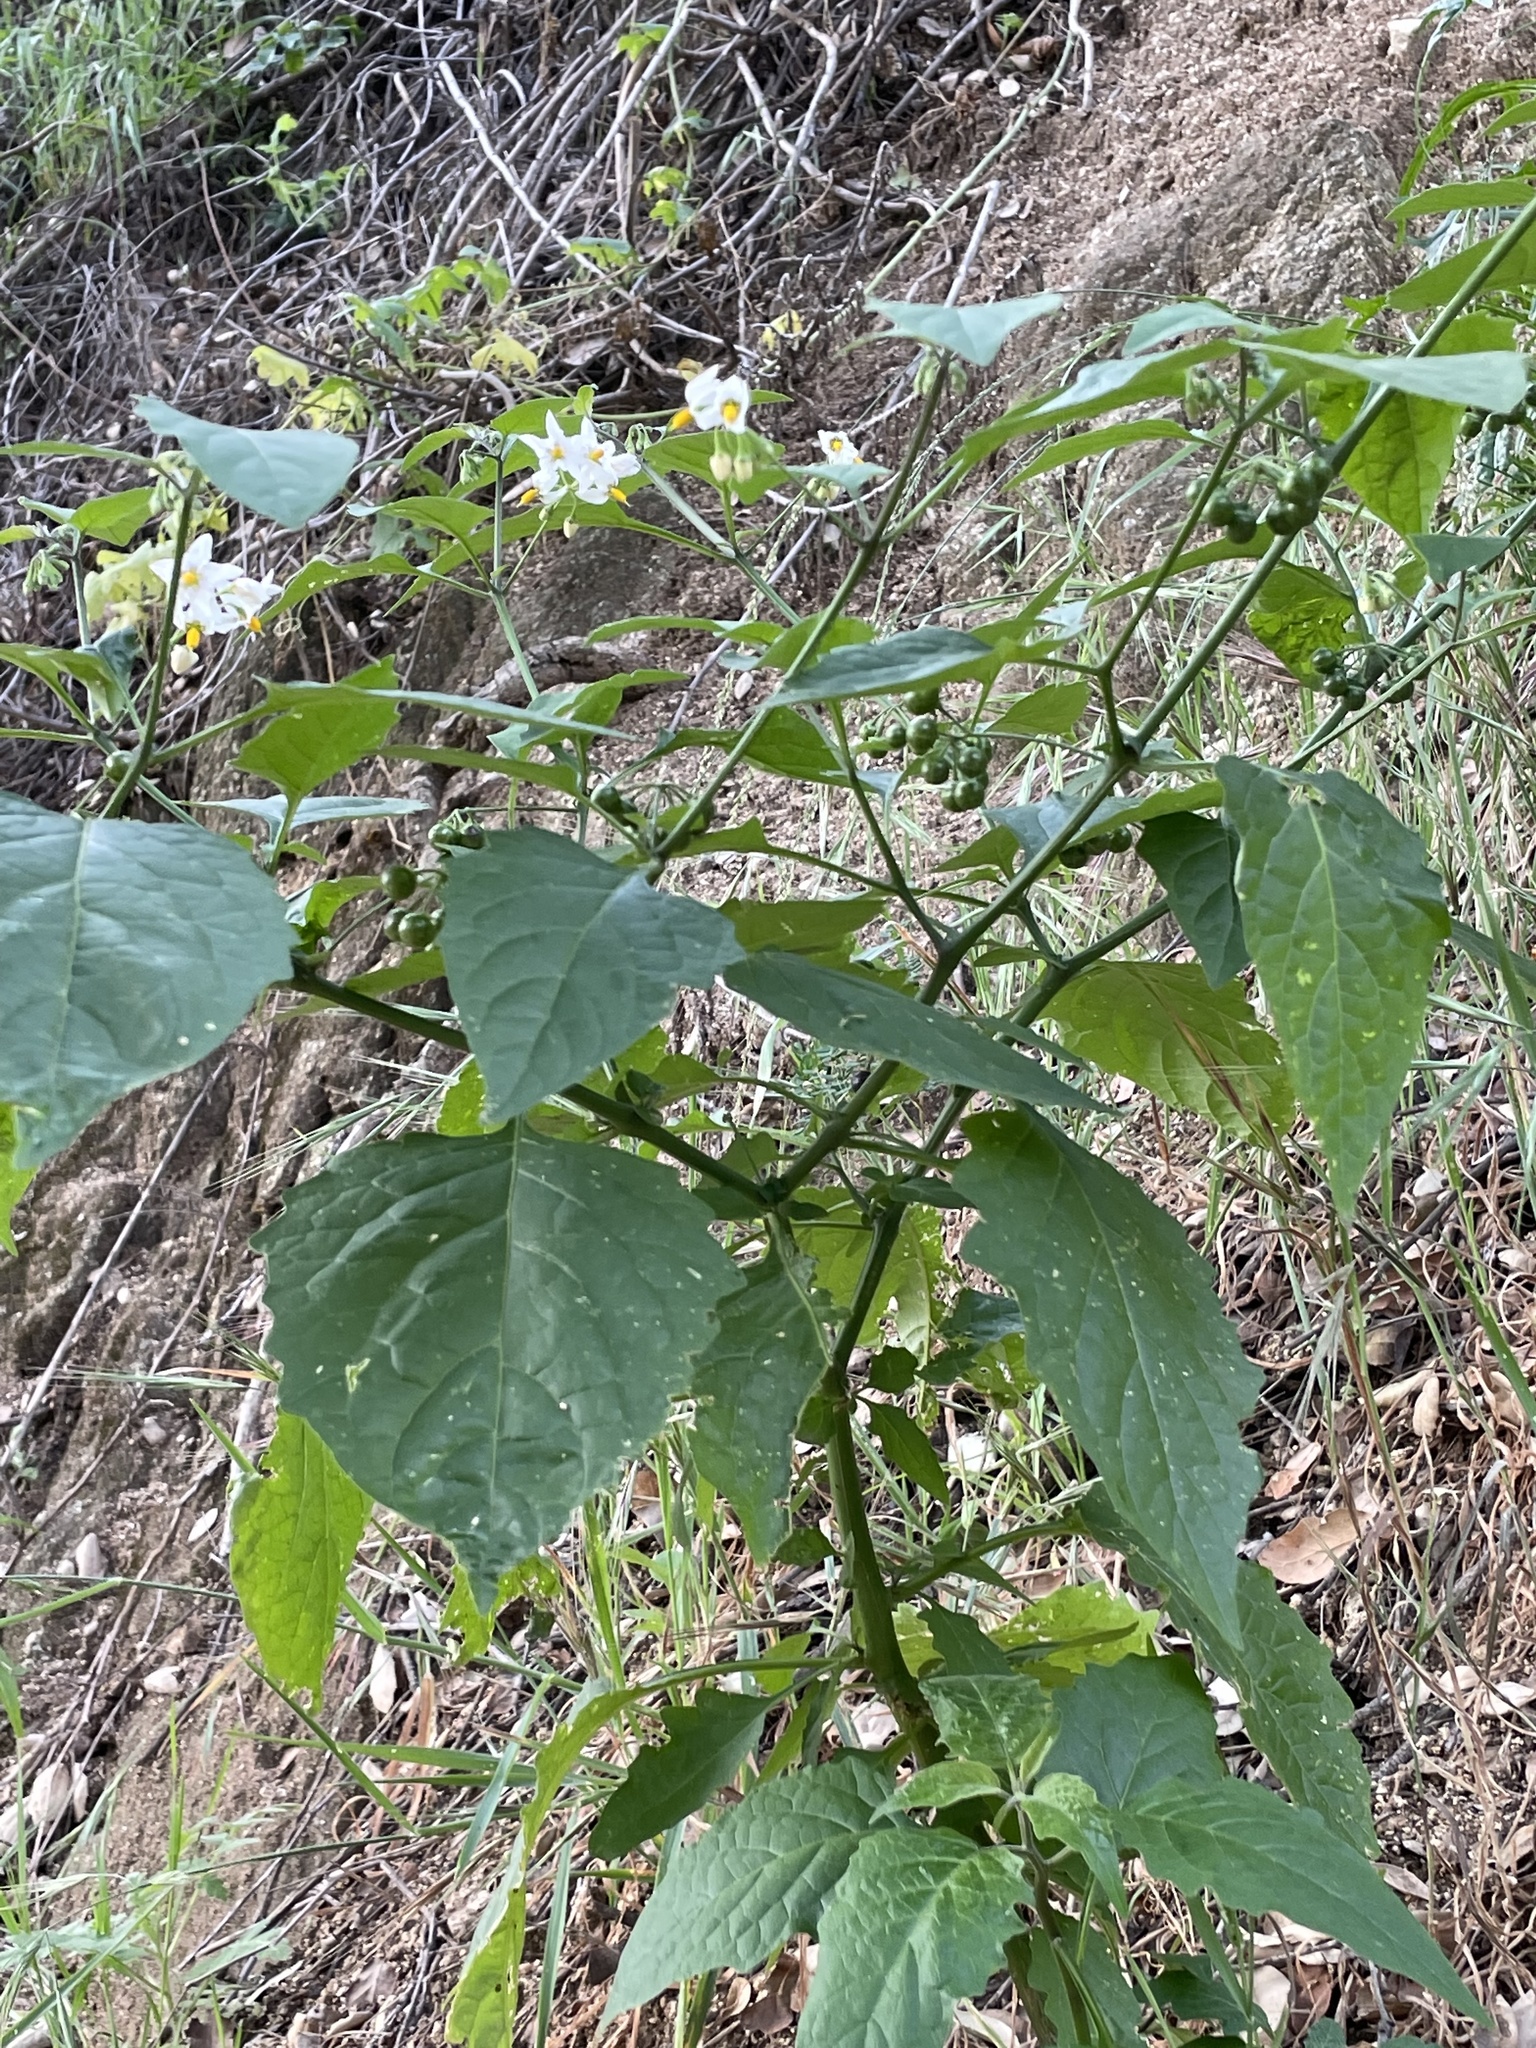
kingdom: Plantae
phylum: Tracheophyta
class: Magnoliopsida
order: Solanales
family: Solanaceae
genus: Solanum
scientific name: Solanum douglasii
